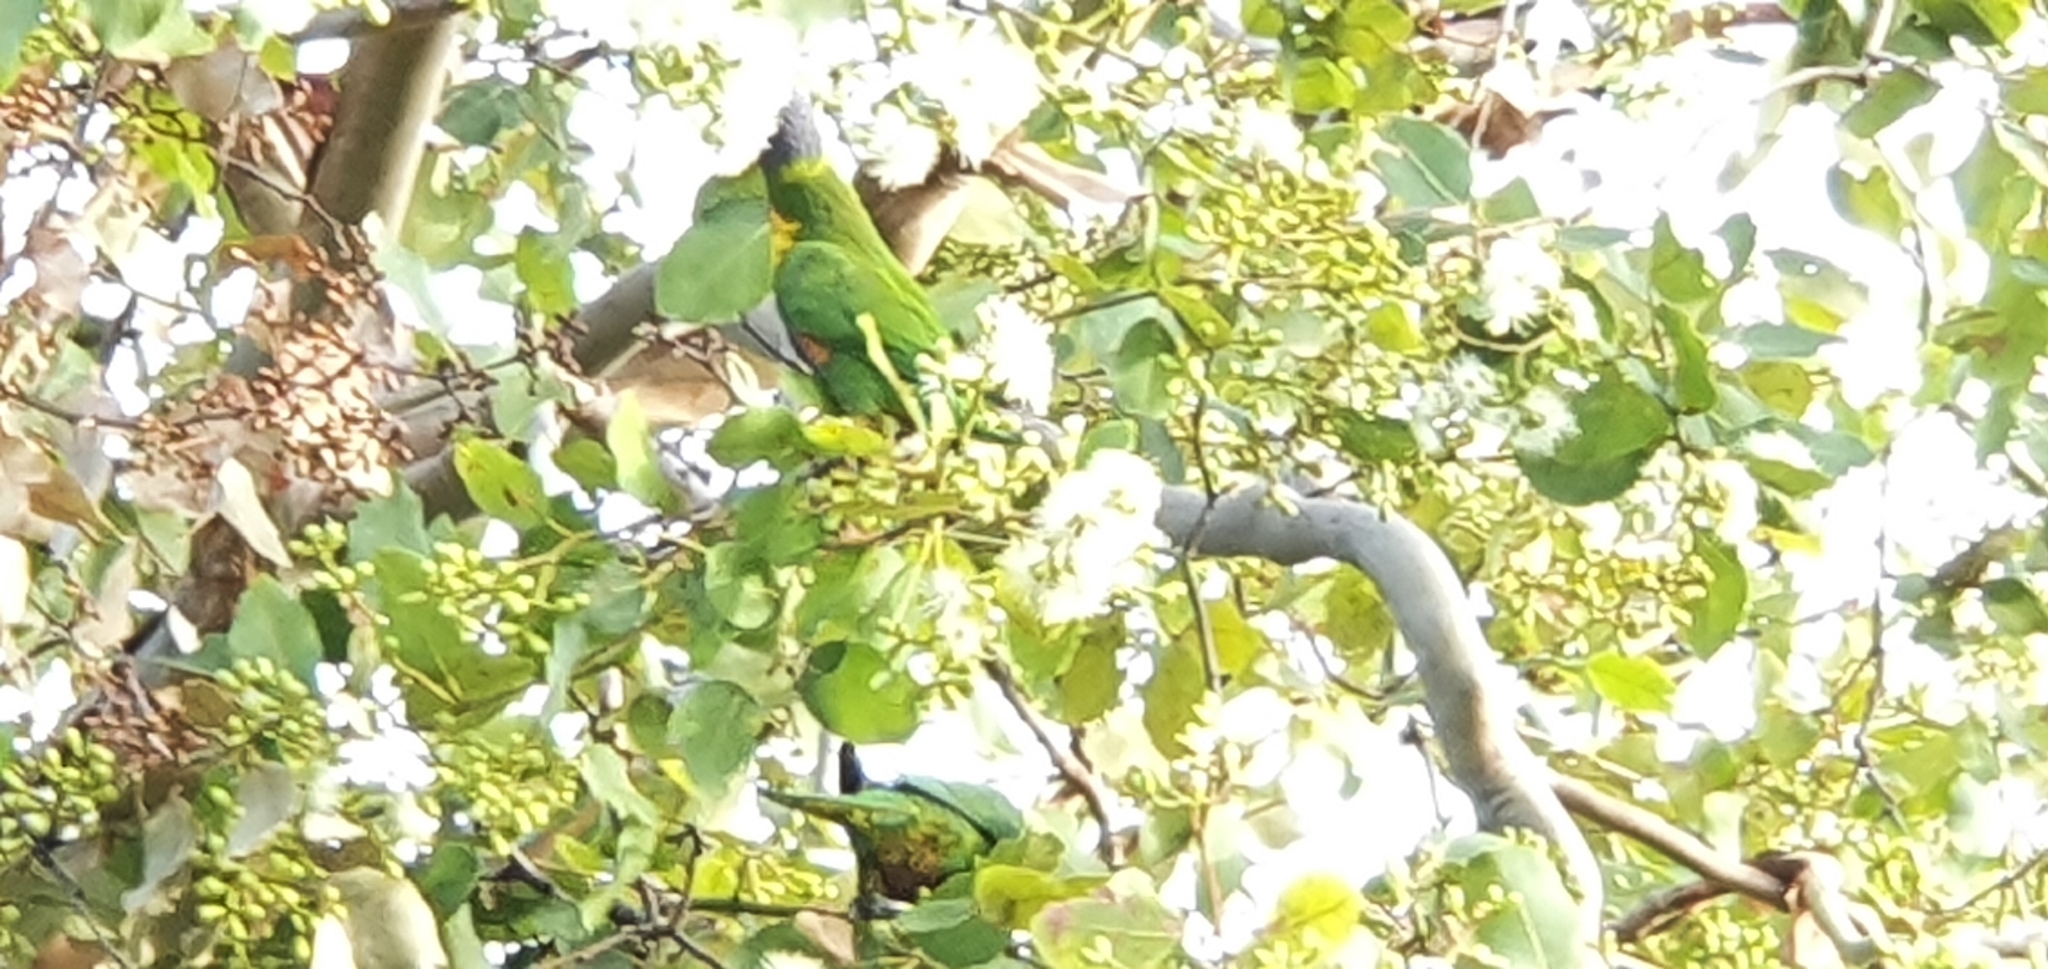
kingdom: Animalia
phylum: Chordata
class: Aves
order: Psittaciformes
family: Psittacidae
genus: Trichoglossus
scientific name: Trichoglossus haematodus
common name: Coconut lorikeet
